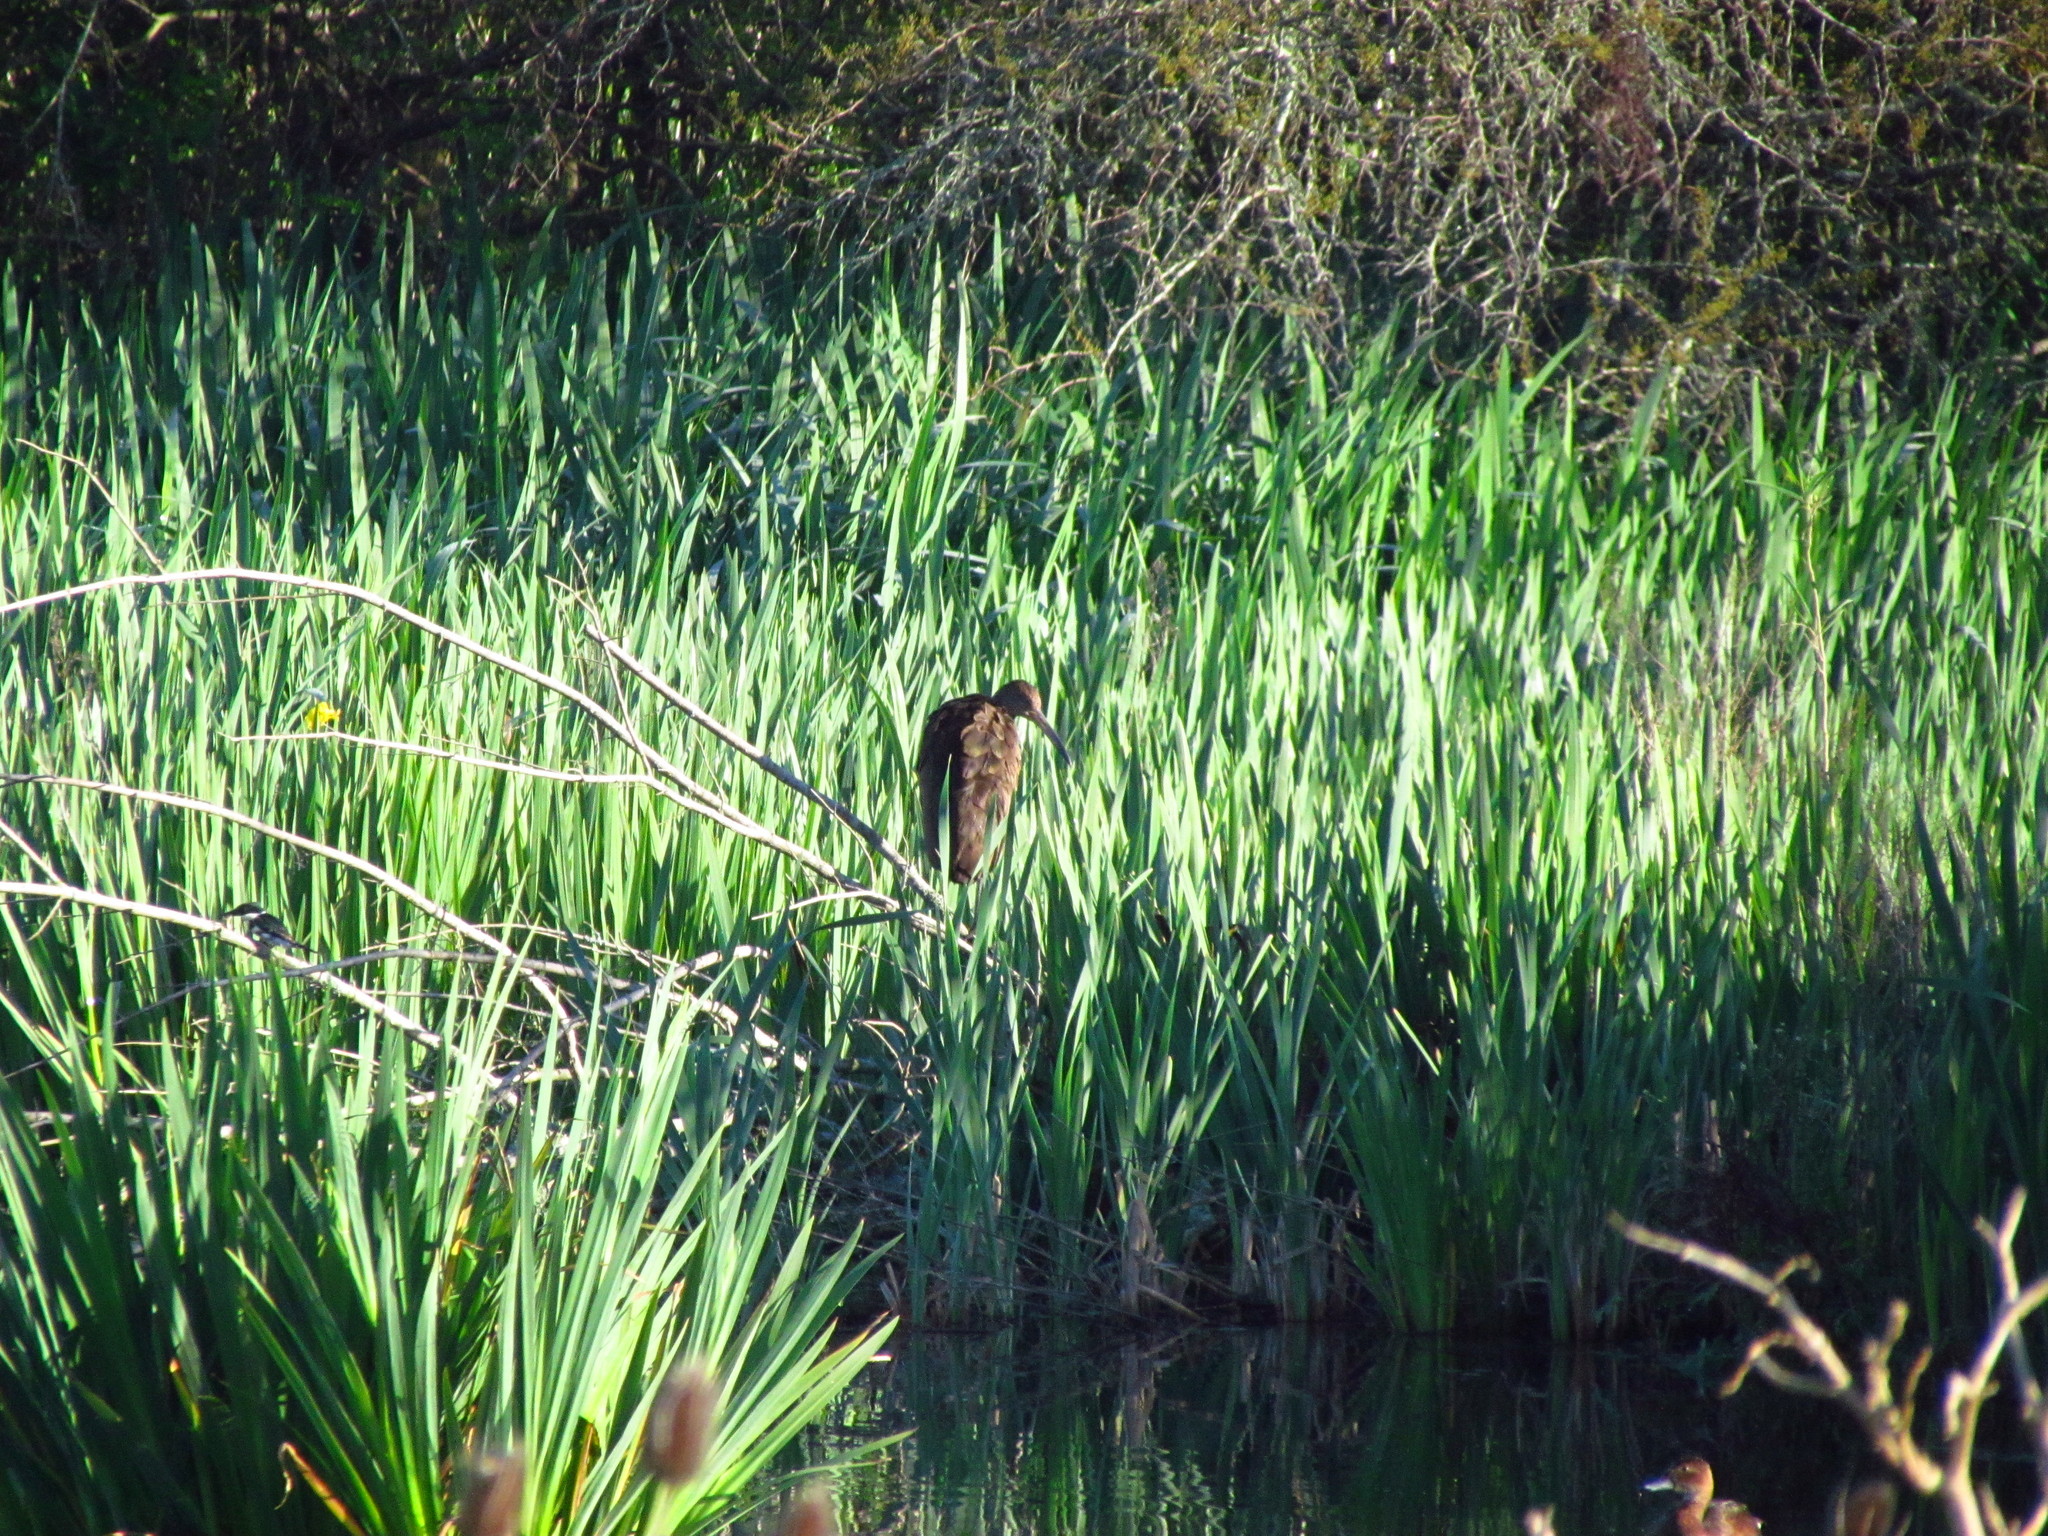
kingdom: Animalia
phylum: Chordata
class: Aves
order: Gruiformes
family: Aramidae
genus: Aramus
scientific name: Aramus guarauna
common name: Limpkin
